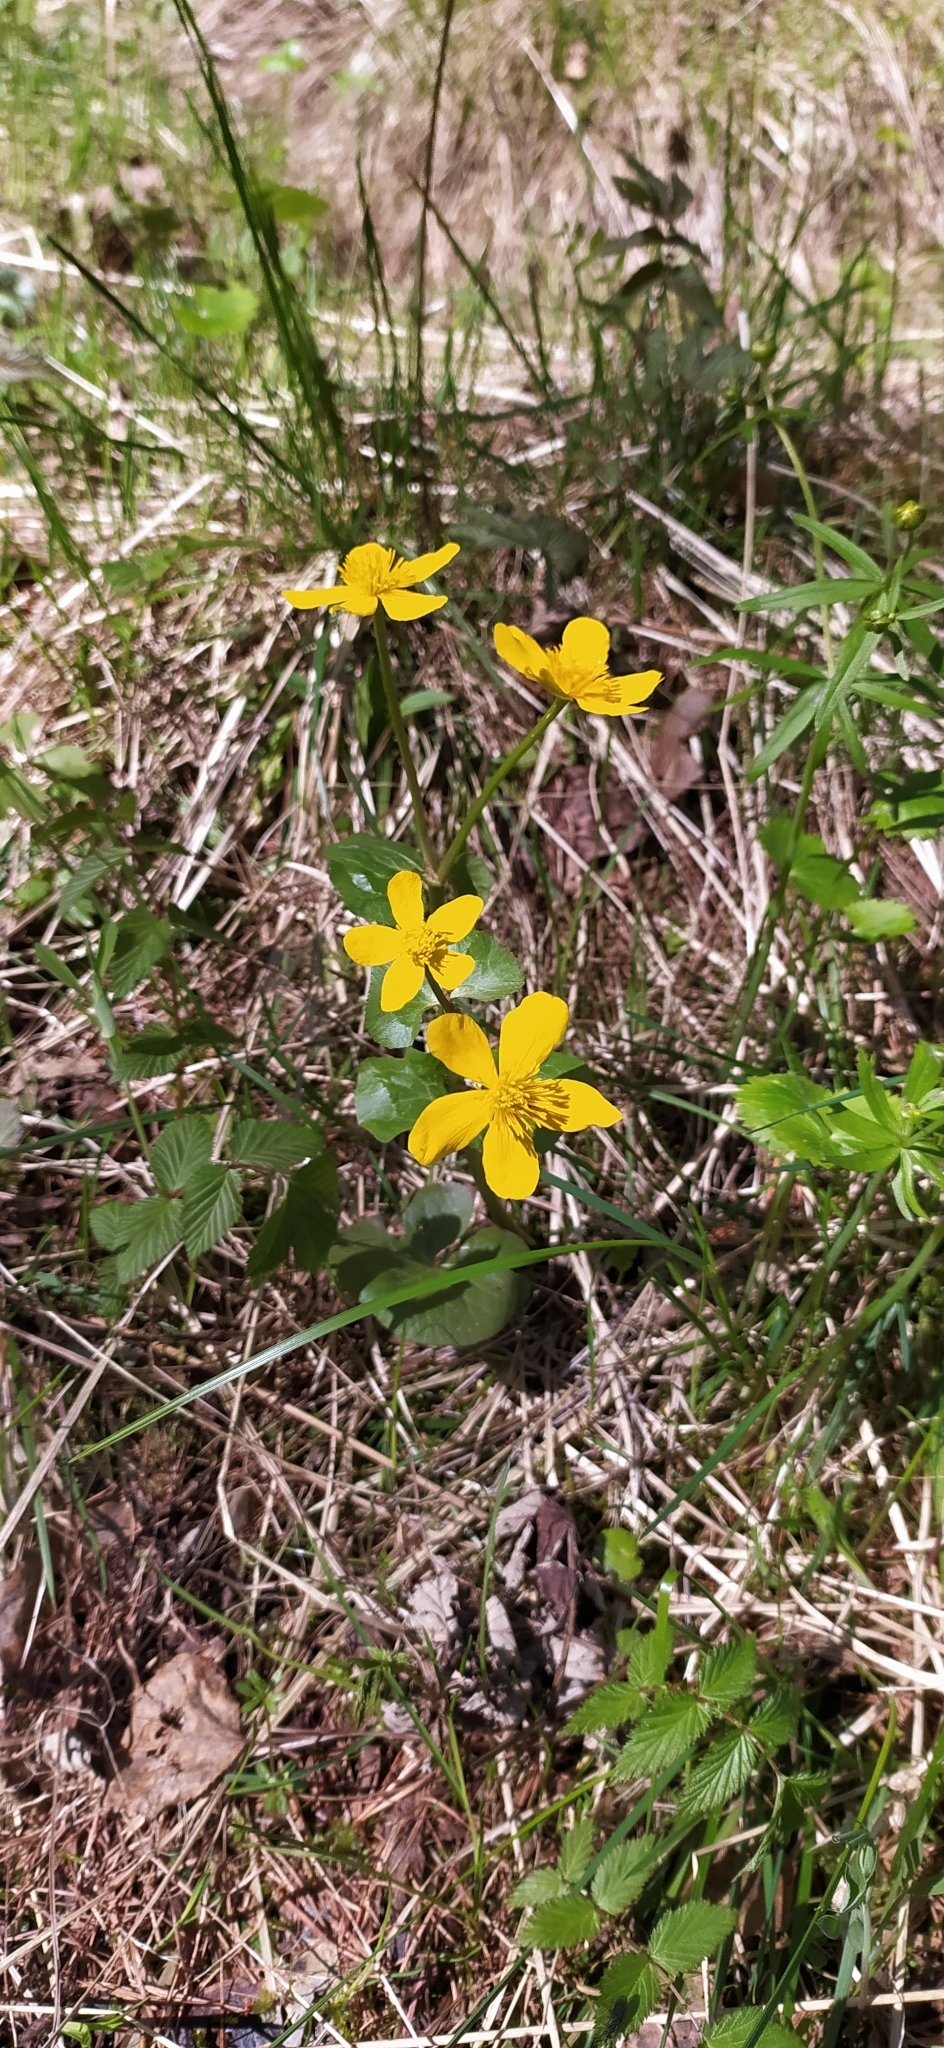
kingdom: Plantae
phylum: Tracheophyta
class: Magnoliopsida
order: Ranunculales
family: Ranunculaceae
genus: Caltha
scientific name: Caltha palustris
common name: Marsh marigold
